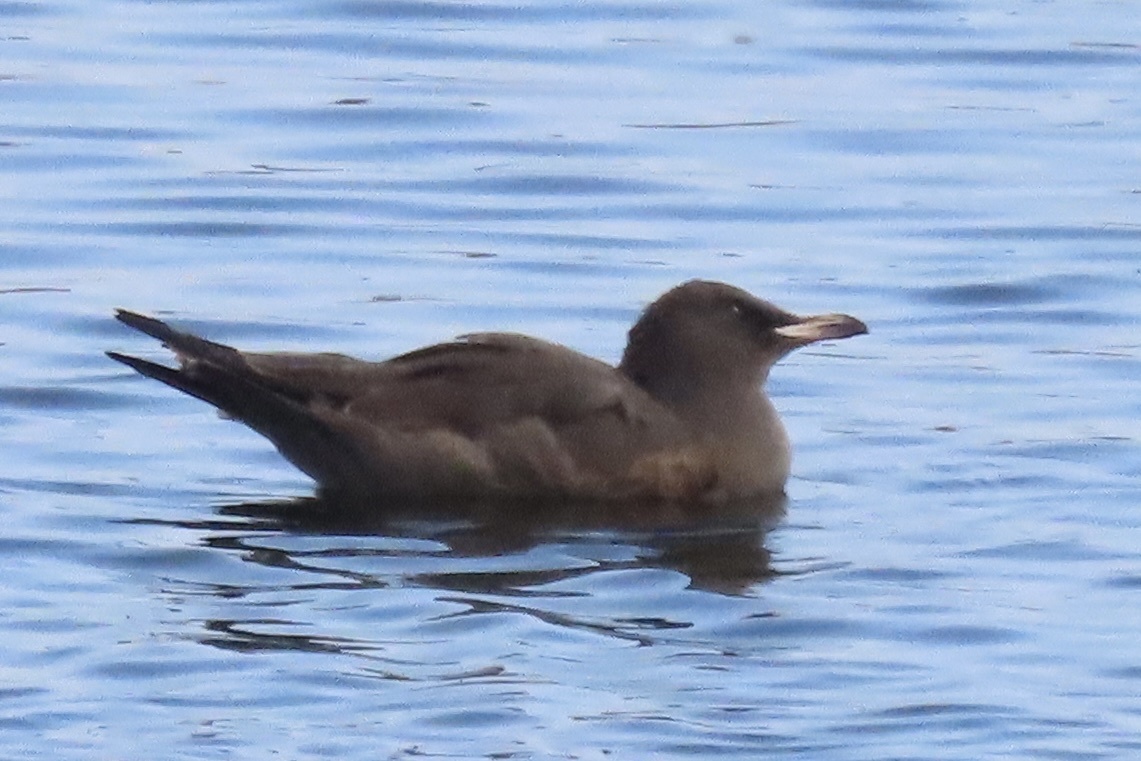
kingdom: Animalia
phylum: Chordata
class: Aves
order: Charadriiformes
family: Laridae
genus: Larus
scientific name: Larus heermanni
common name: Heermann's gull
